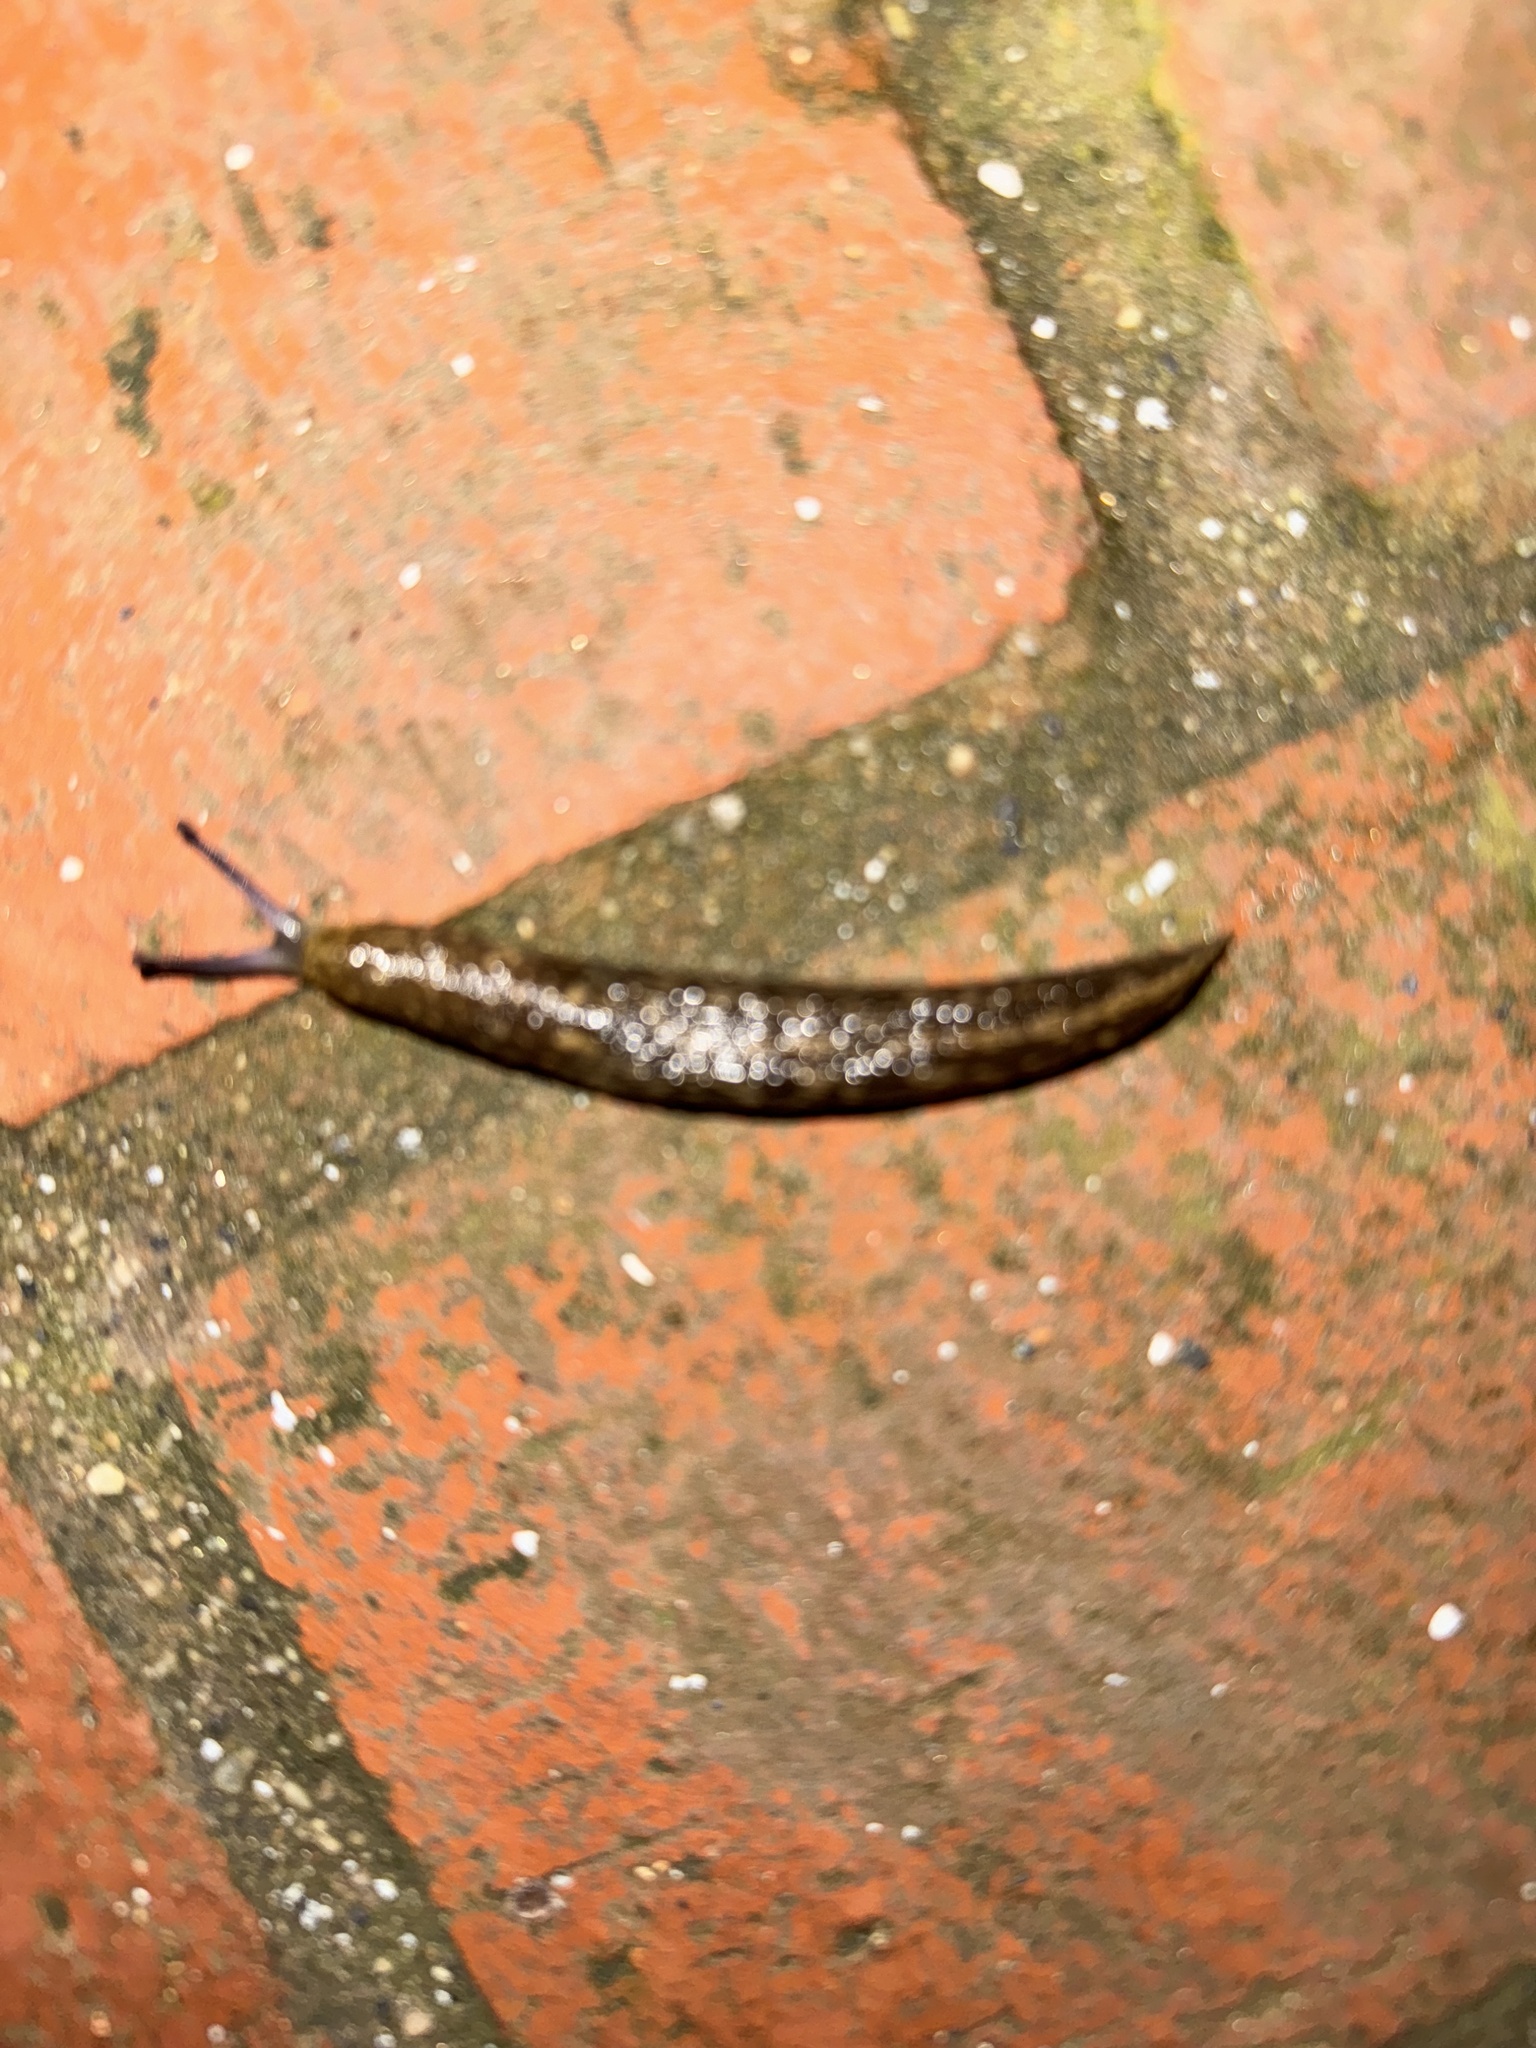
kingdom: Animalia
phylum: Mollusca
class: Gastropoda
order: Stylommatophora
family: Limacidae
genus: Limacus
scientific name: Limacus flavus
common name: Yellow gardenslug
